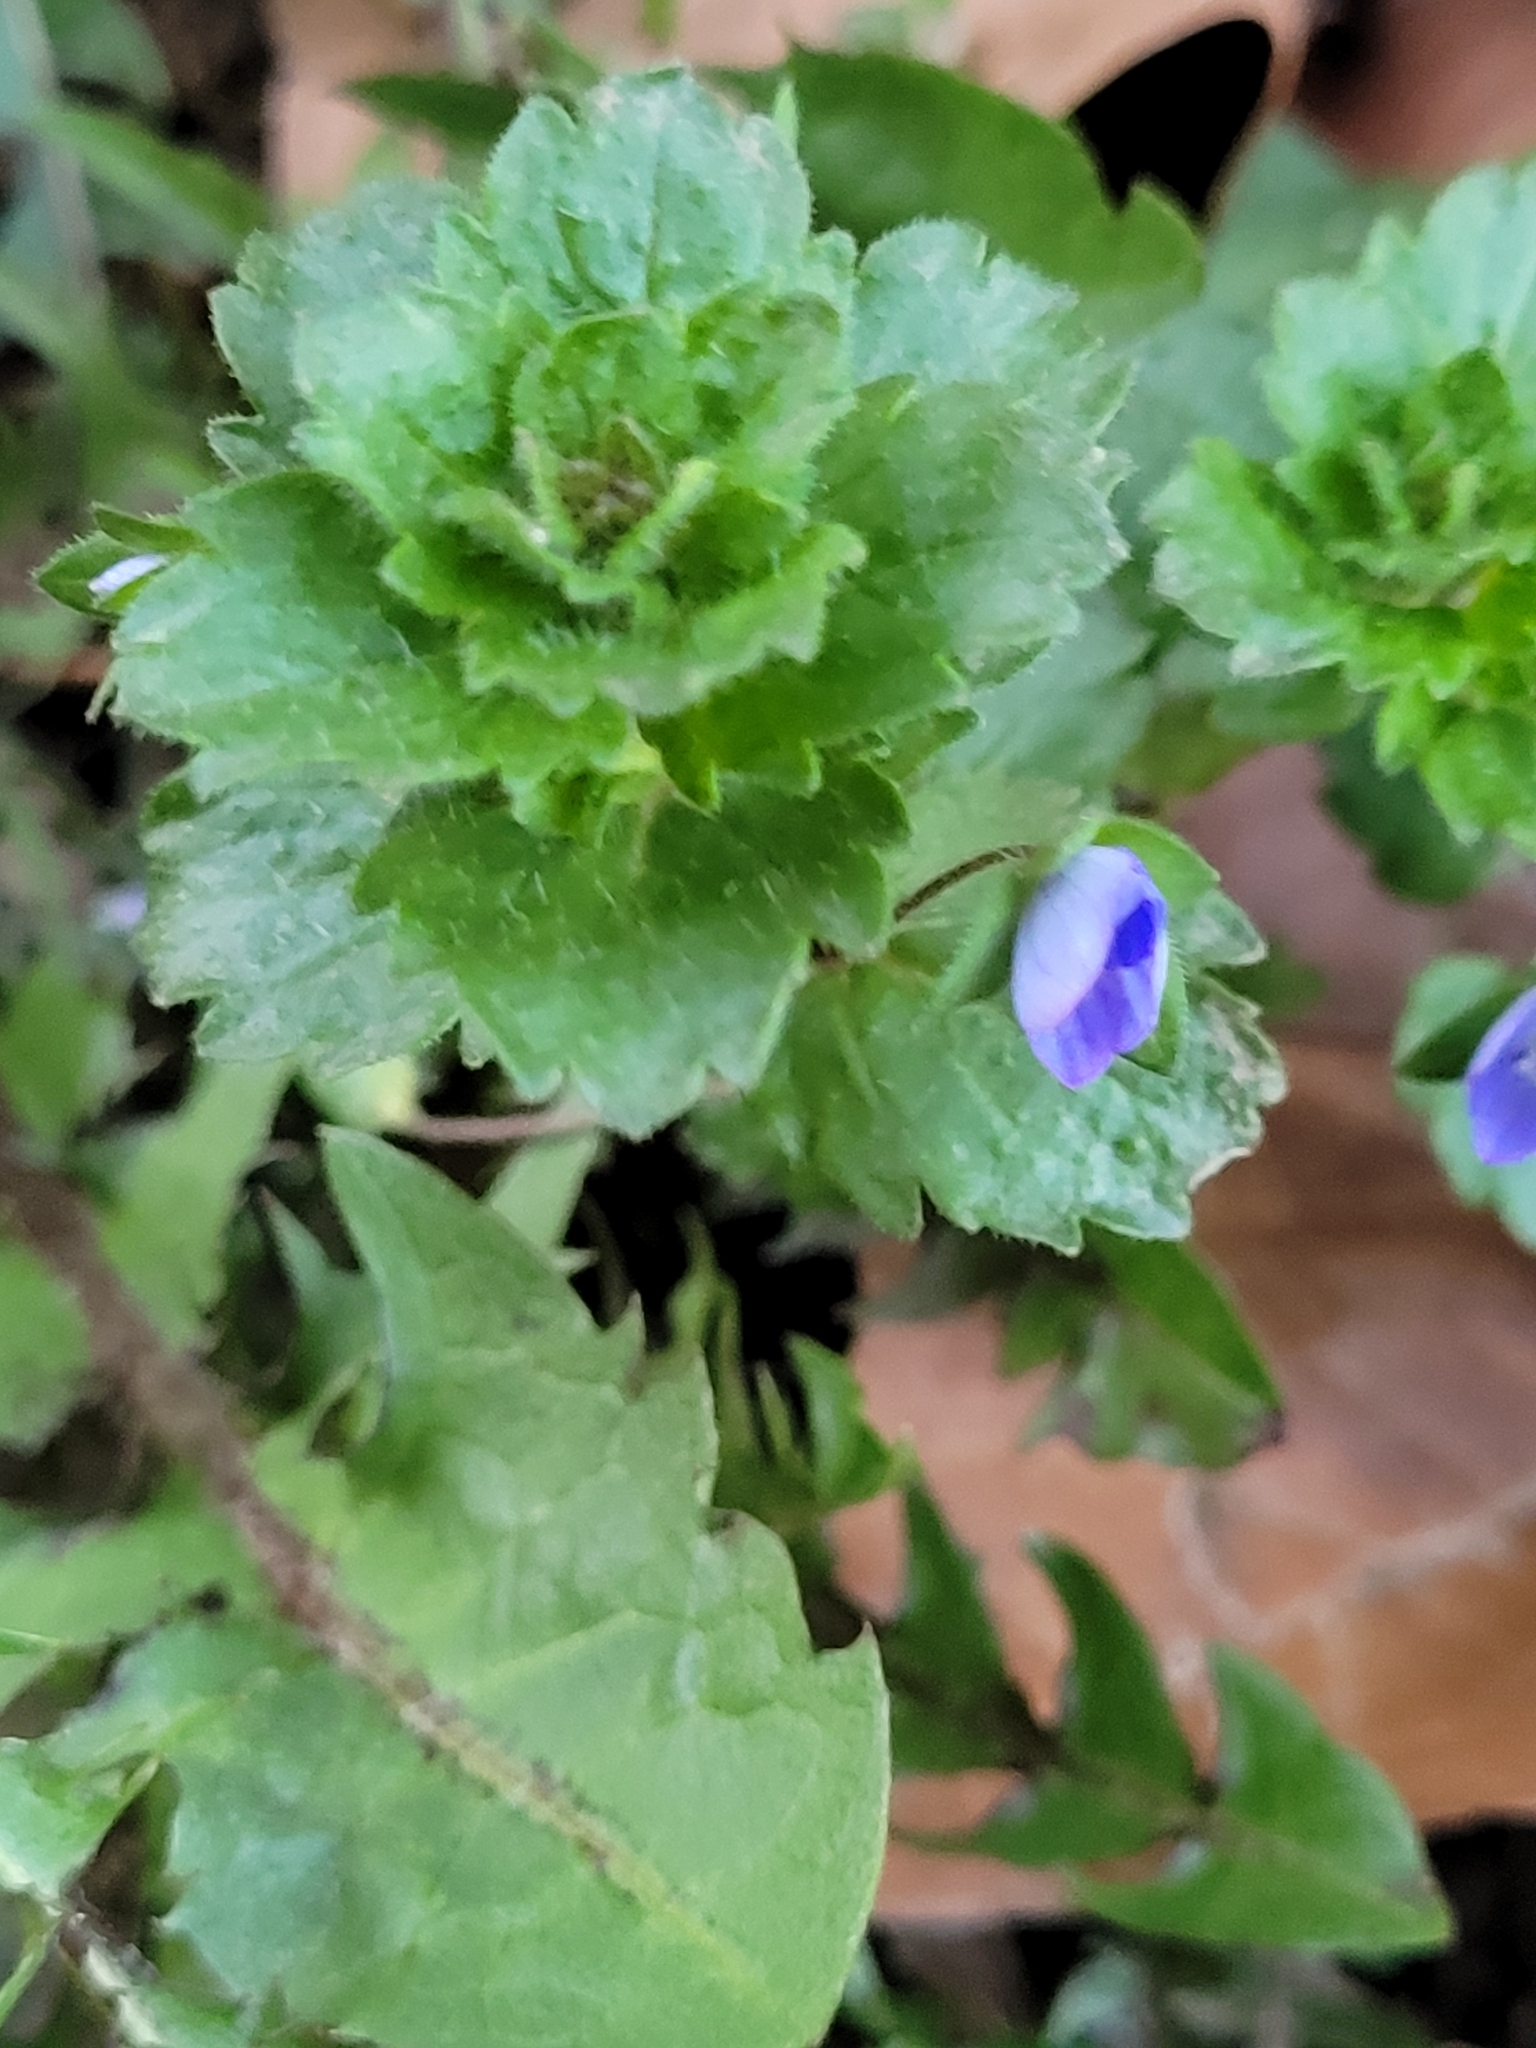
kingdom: Plantae
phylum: Tracheophyta
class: Magnoliopsida
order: Lamiales
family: Plantaginaceae
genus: Veronica
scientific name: Veronica persica
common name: Common field-speedwell
